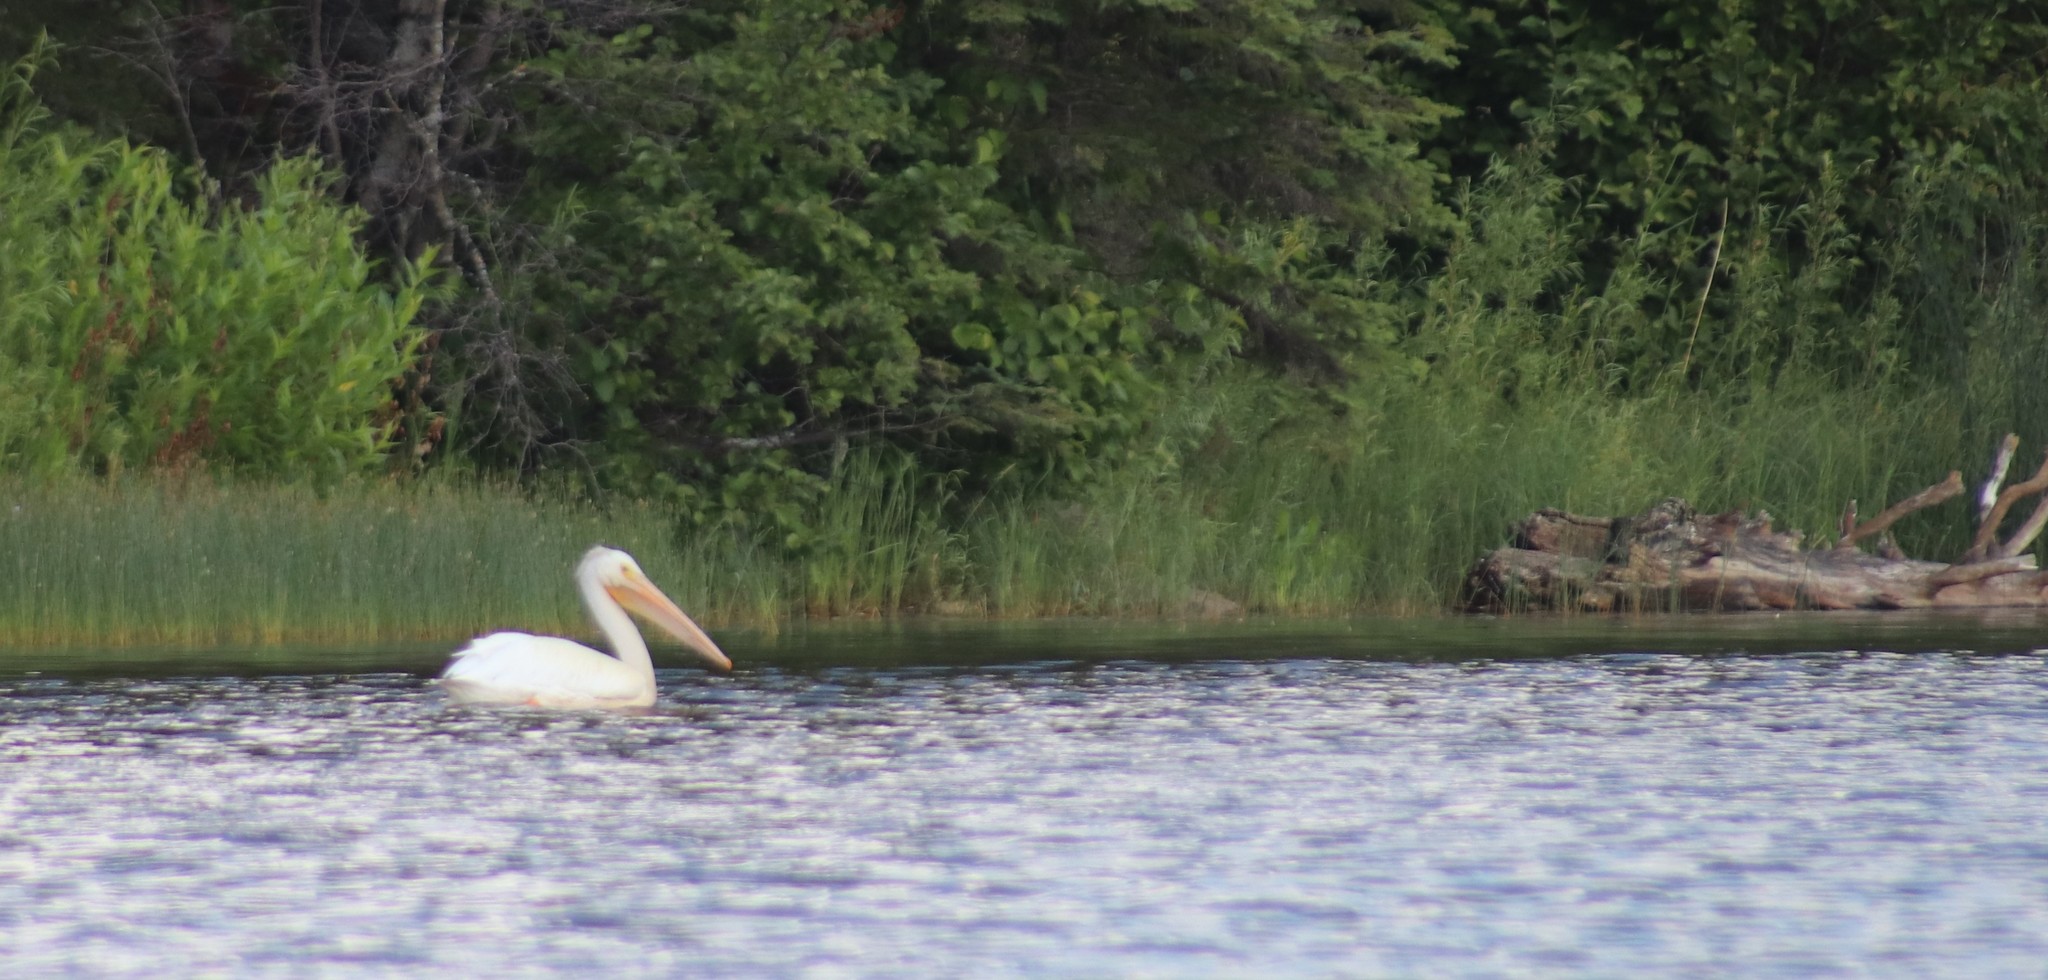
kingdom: Animalia
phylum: Chordata
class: Aves
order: Pelecaniformes
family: Pelecanidae
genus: Pelecanus
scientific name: Pelecanus erythrorhynchos
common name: American white pelican
